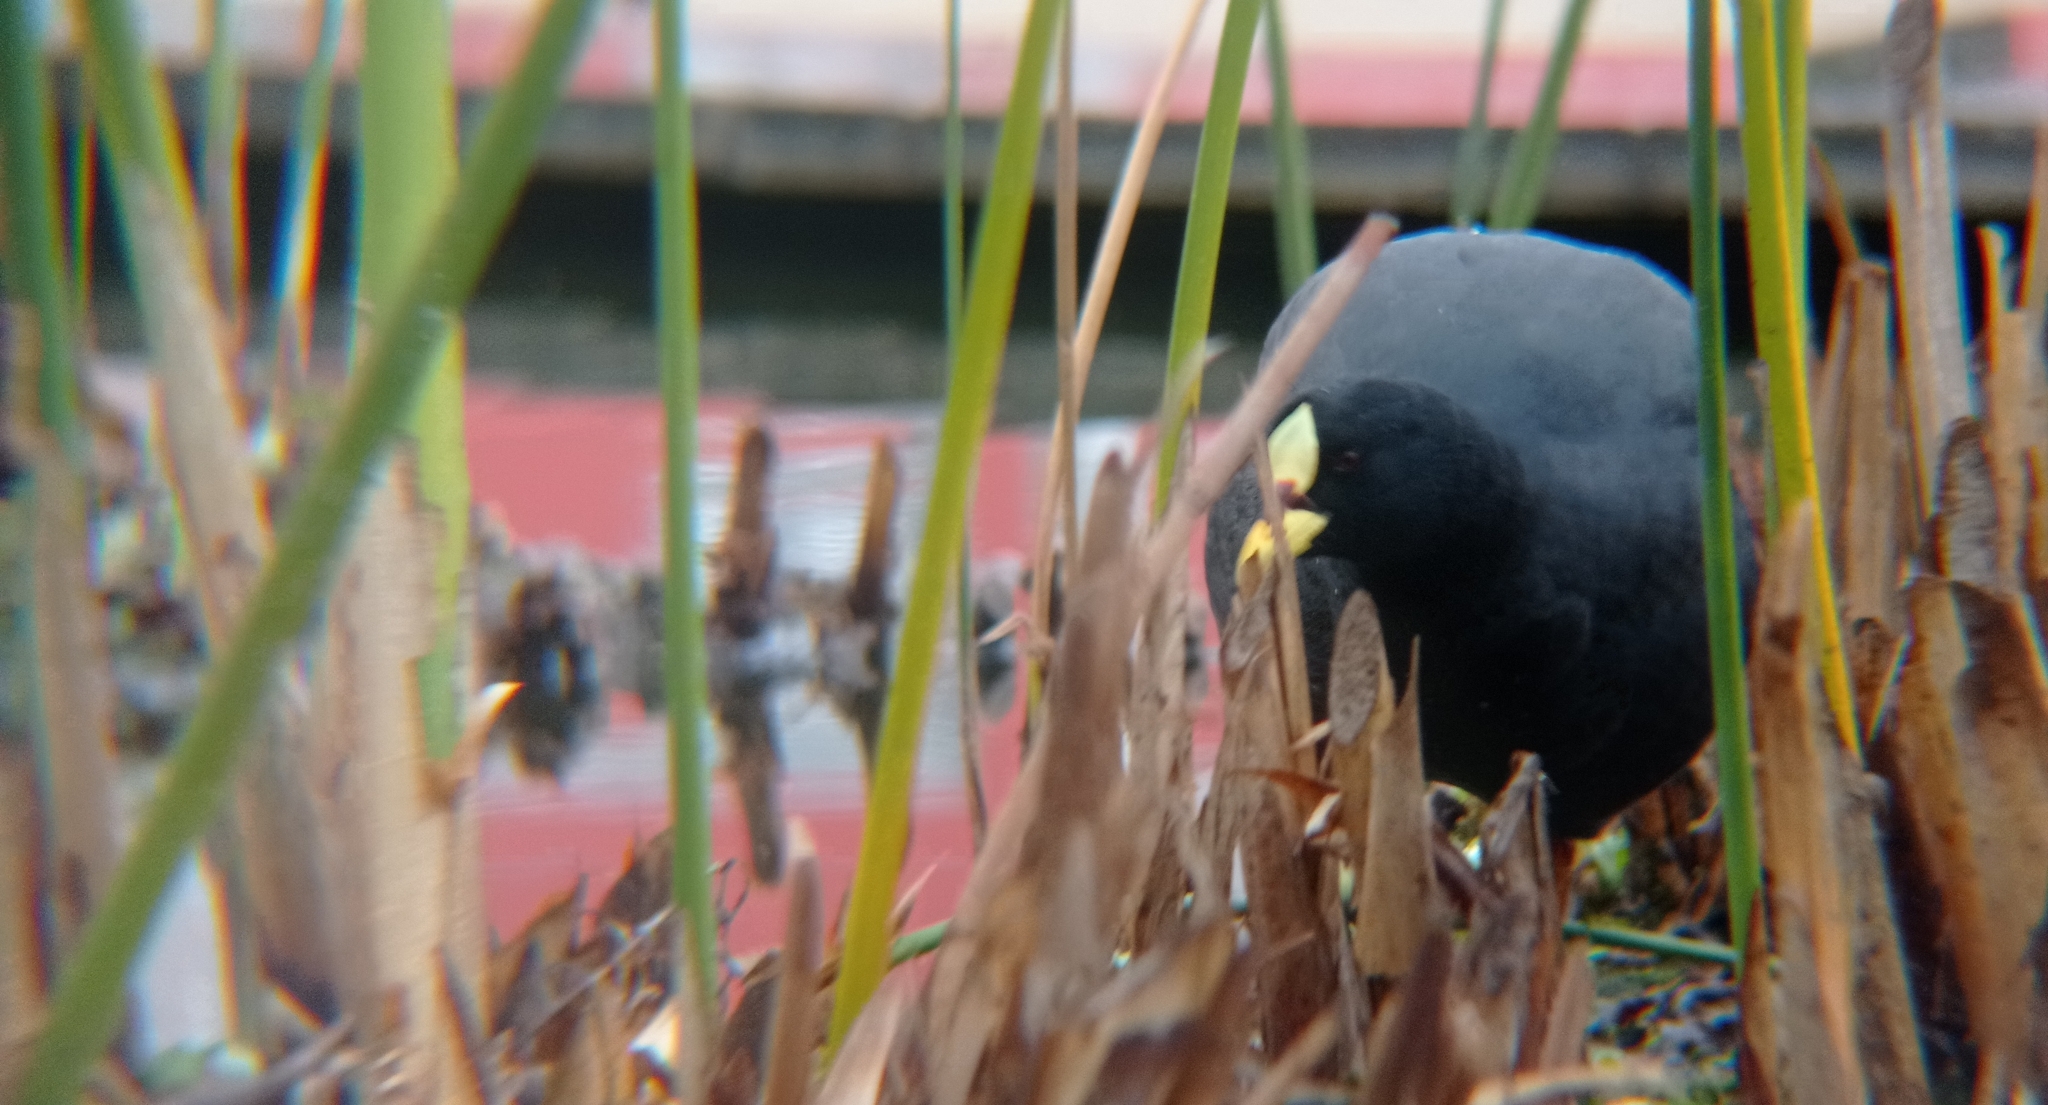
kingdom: Animalia
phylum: Chordata
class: Aves
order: Gruiformes
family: Rallidae
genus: Fulica
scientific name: Fulica armillata
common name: Red-gartered coot
